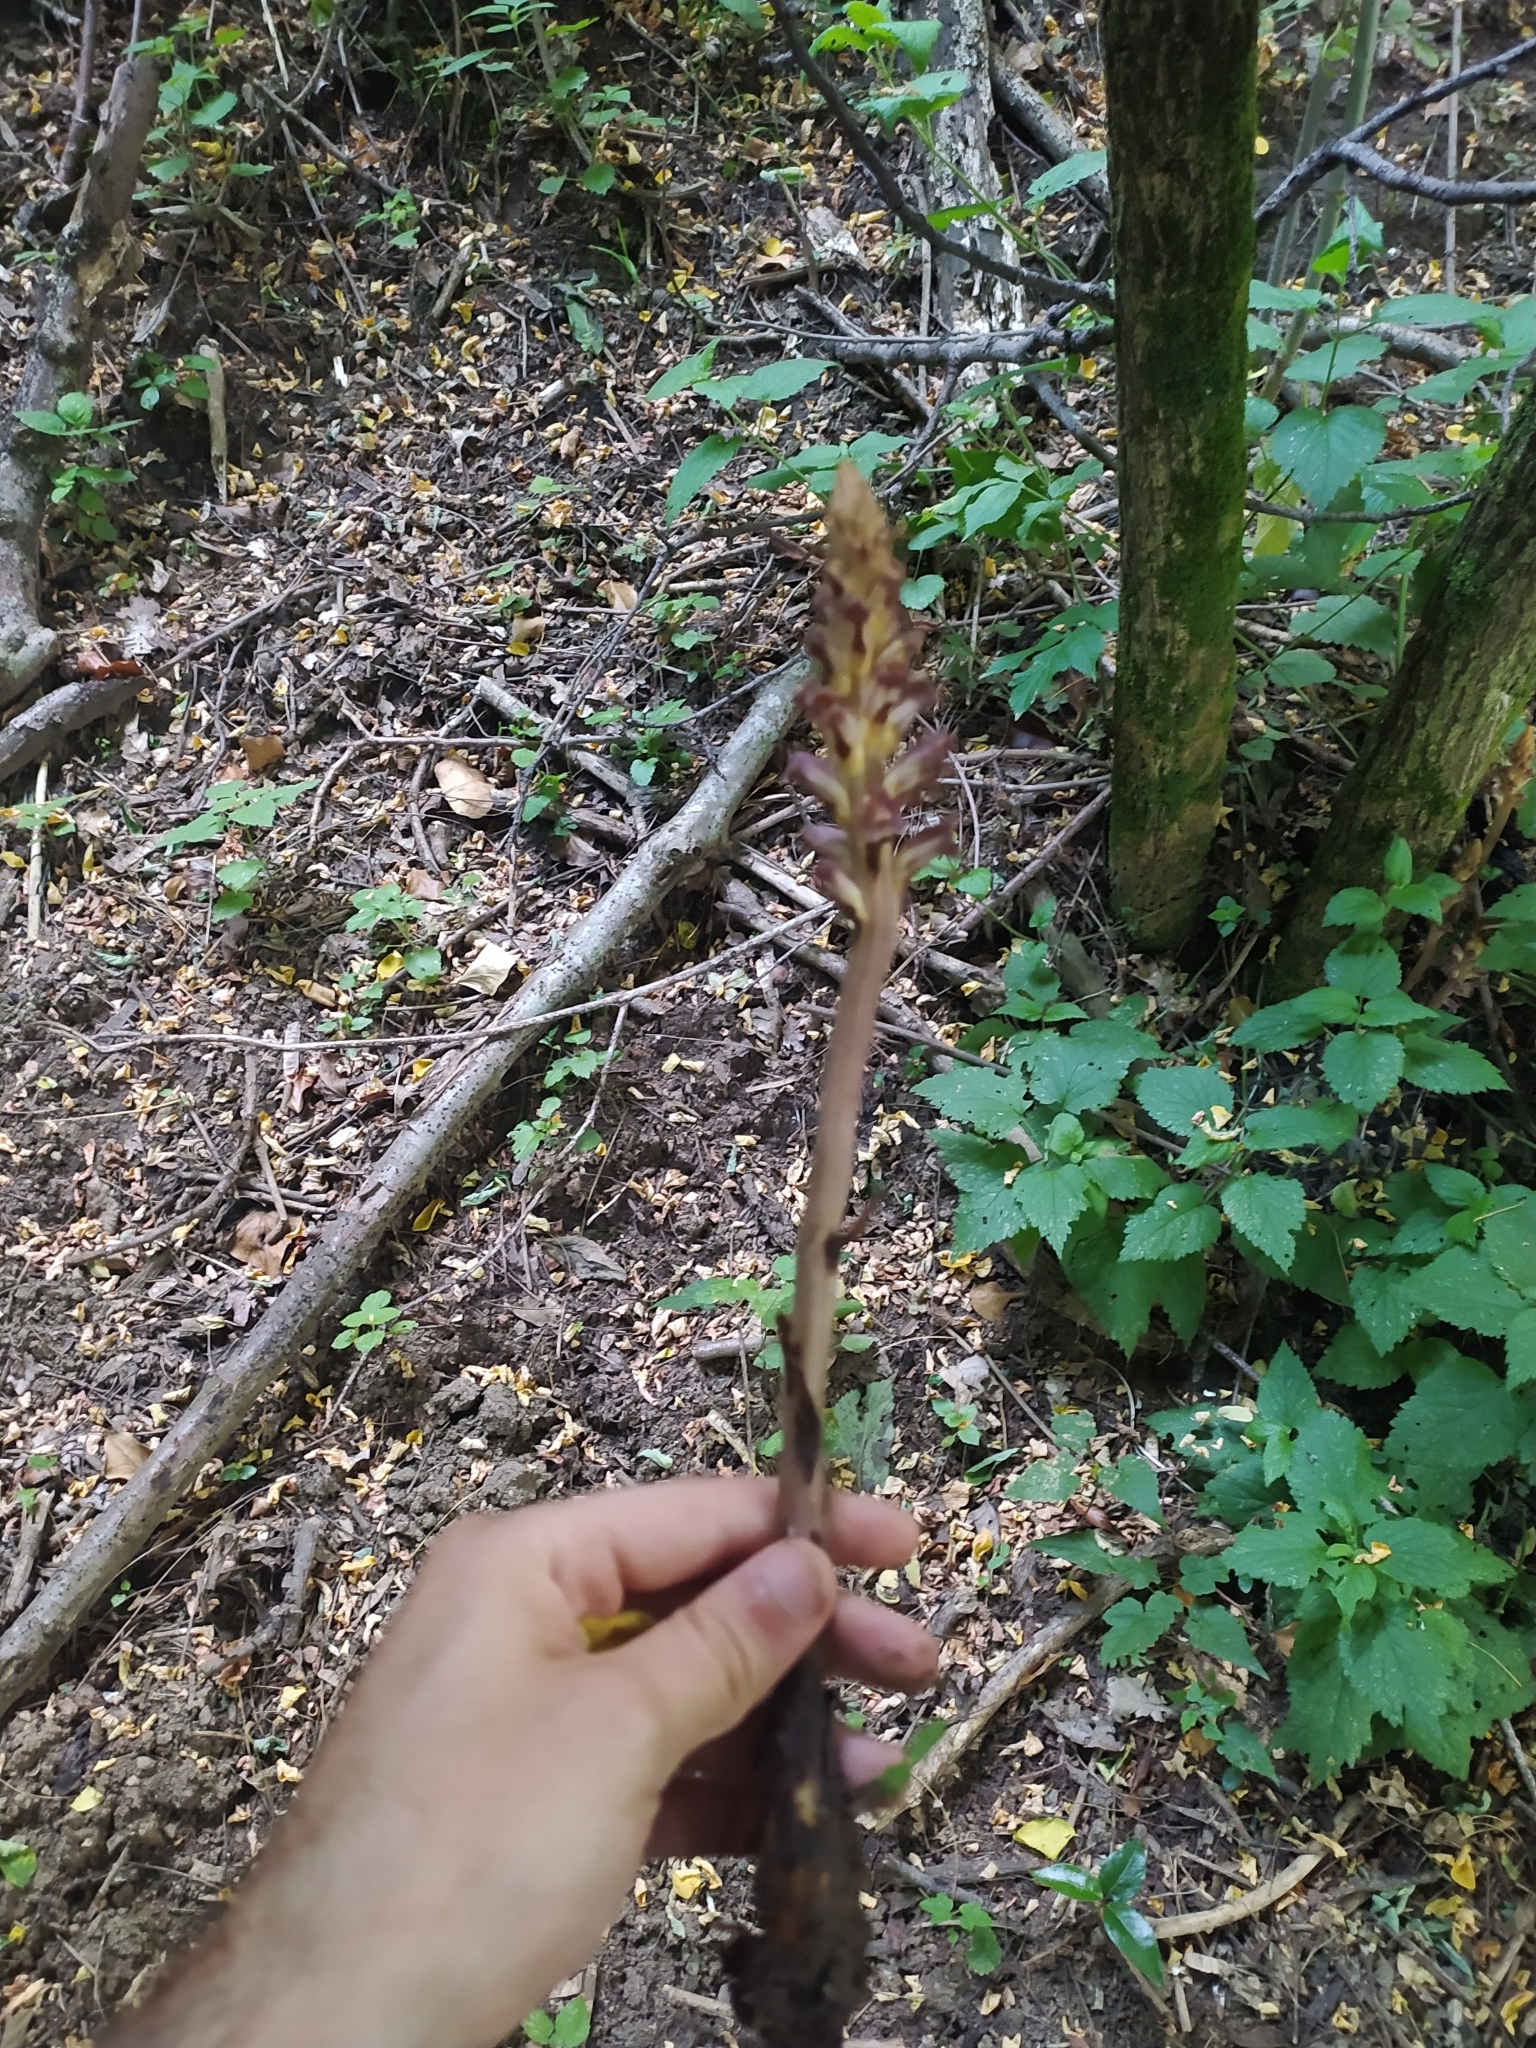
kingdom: Plantae
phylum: Tracheophyta
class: Magnoliopsida
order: Lamiales
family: Orobanchaceae
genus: Orobanche
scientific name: Orobanche ebuli
